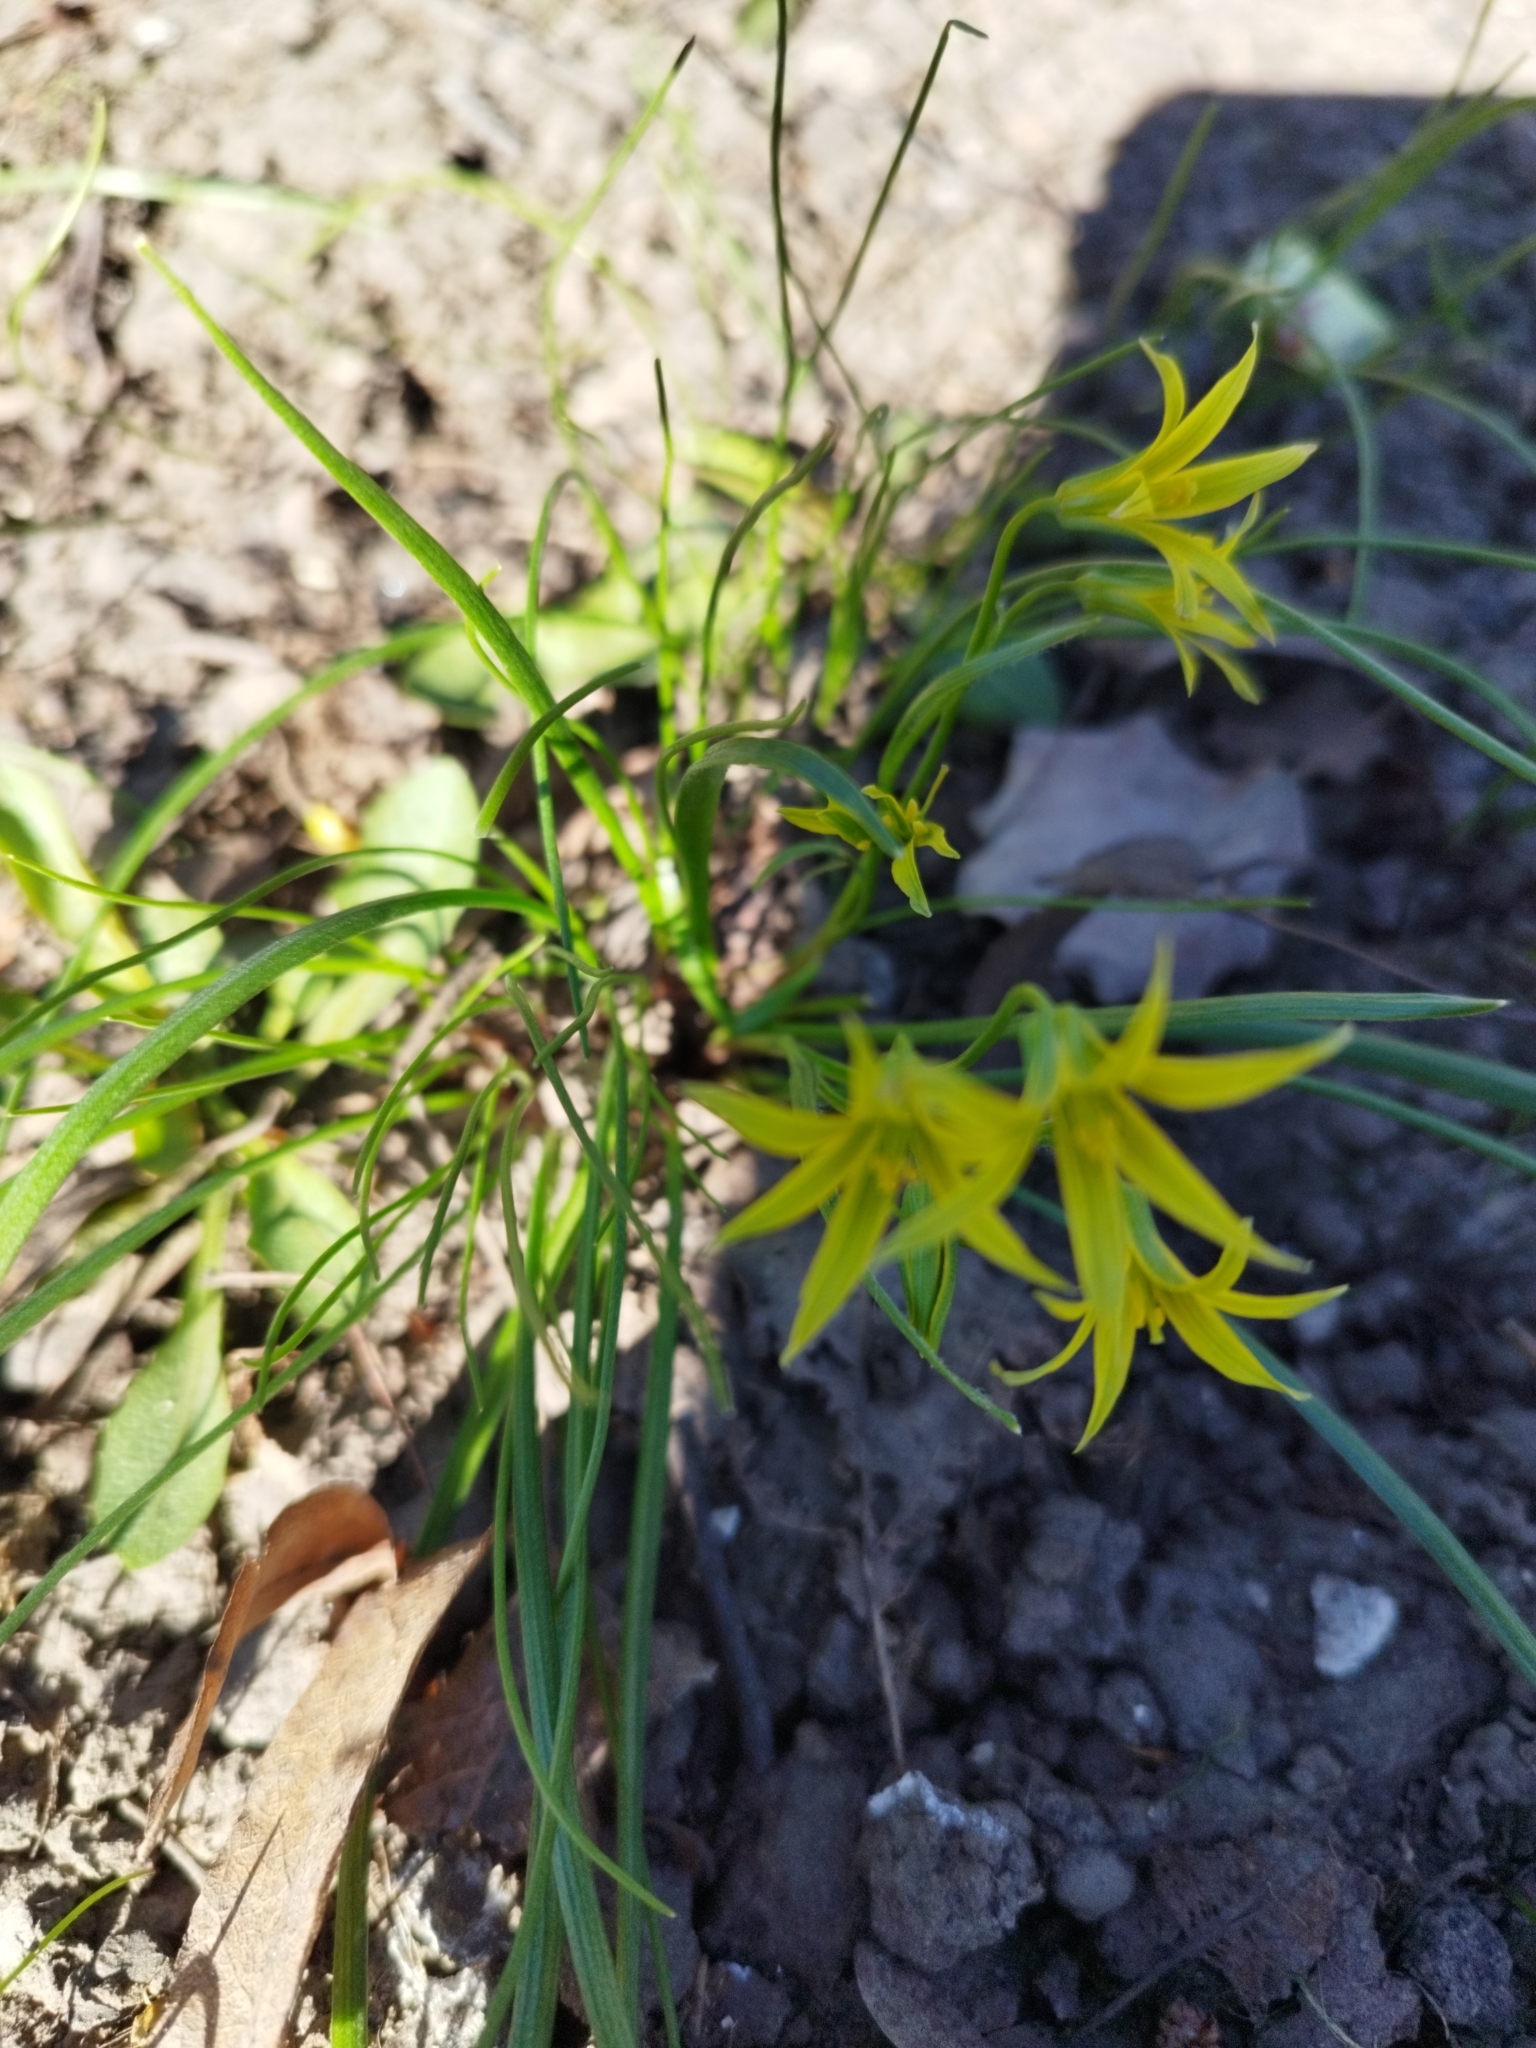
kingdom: Plantae
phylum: Tracheophyta
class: Liliopsida
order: Liliales
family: Liliaceae
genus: Gagea
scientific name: Gagea minima
